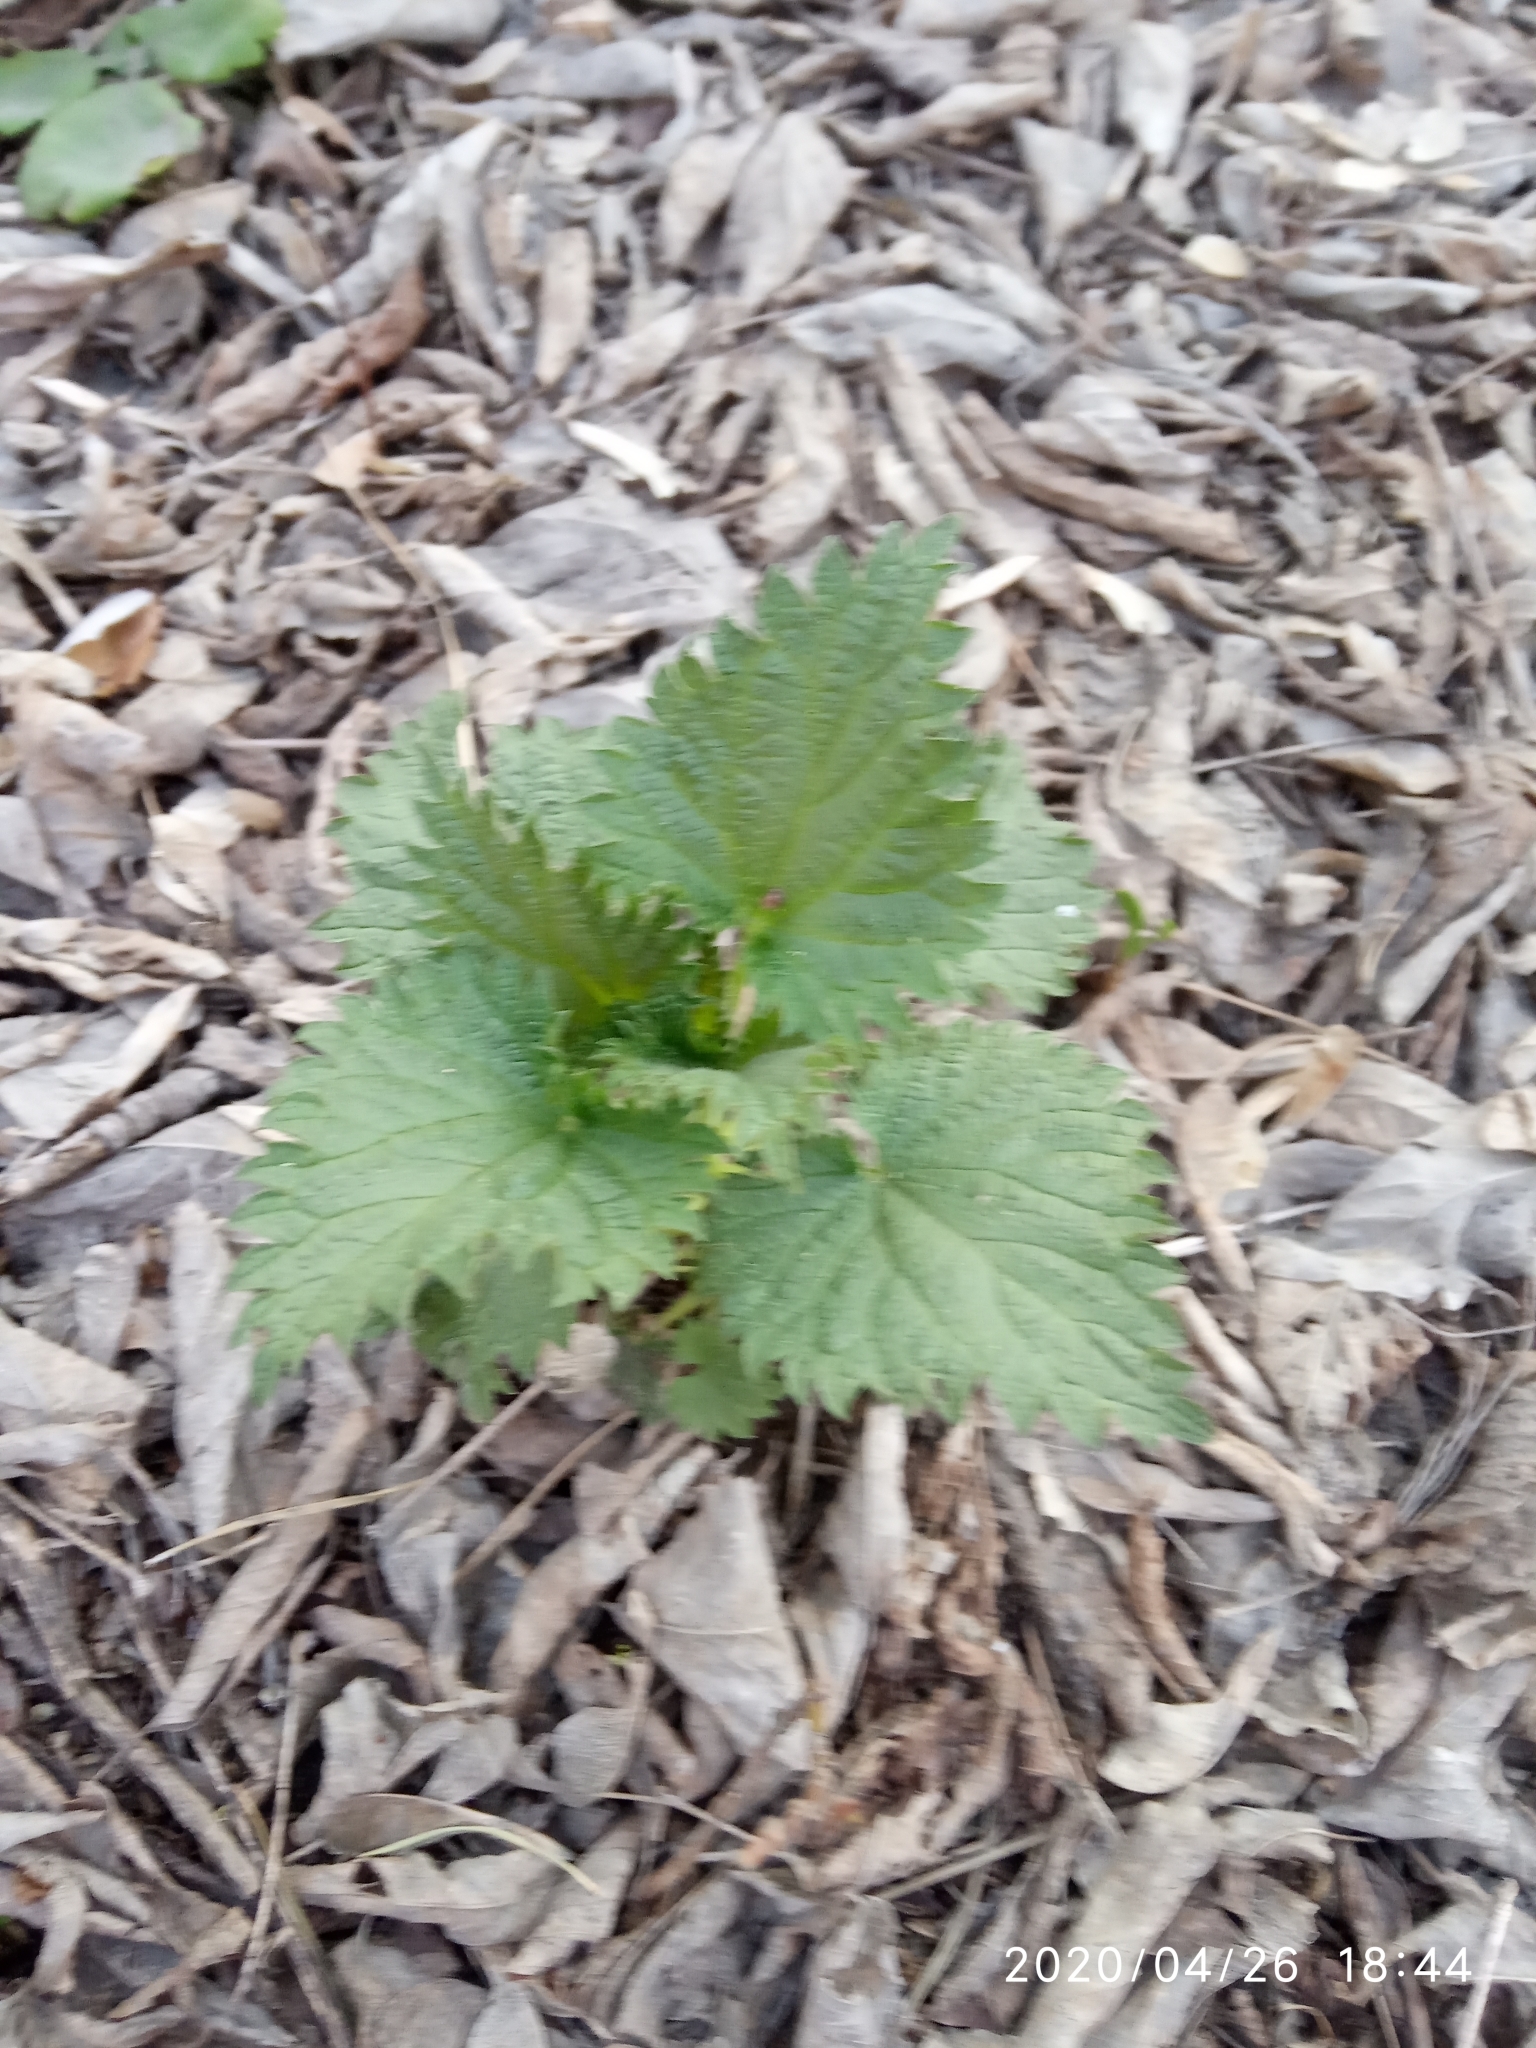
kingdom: Plantae
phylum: Tracheophyta
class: Magnoliopsida
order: Rosales
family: Urticaceae
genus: Urtica
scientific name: Urtica dioica
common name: Common nettle
